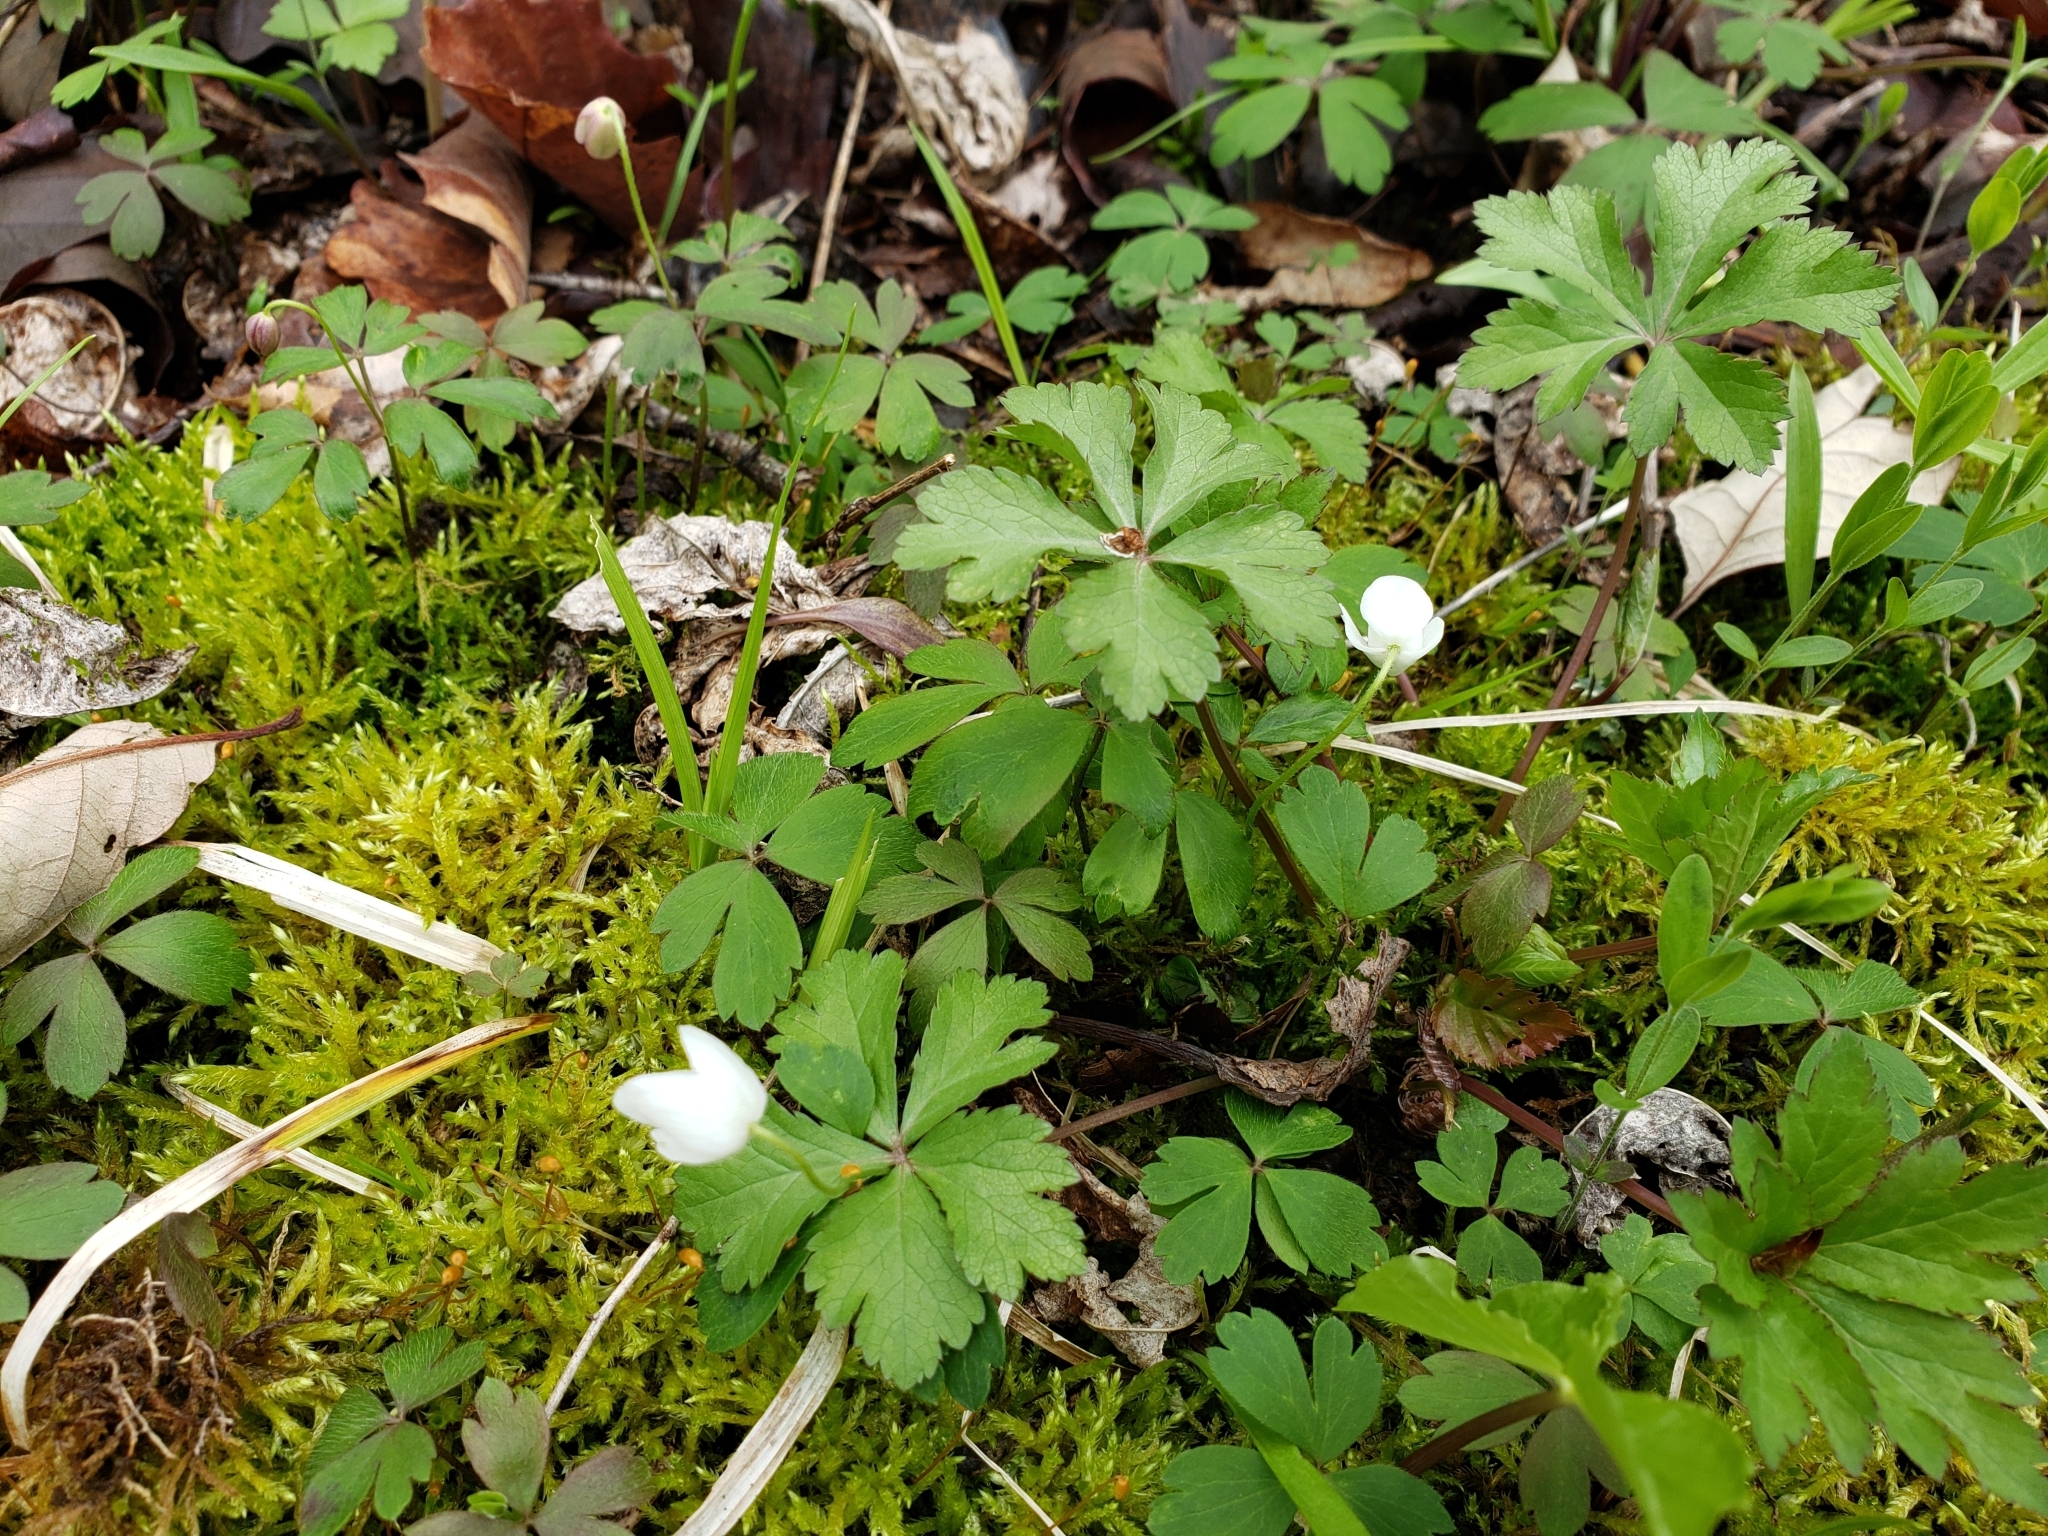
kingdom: Plantae
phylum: Tracheophyta
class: Magnoliopsida
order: Ranunculales
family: Ranunculaceae
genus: Anemone
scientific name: Anemone quinquefolia
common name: Wood anemone
